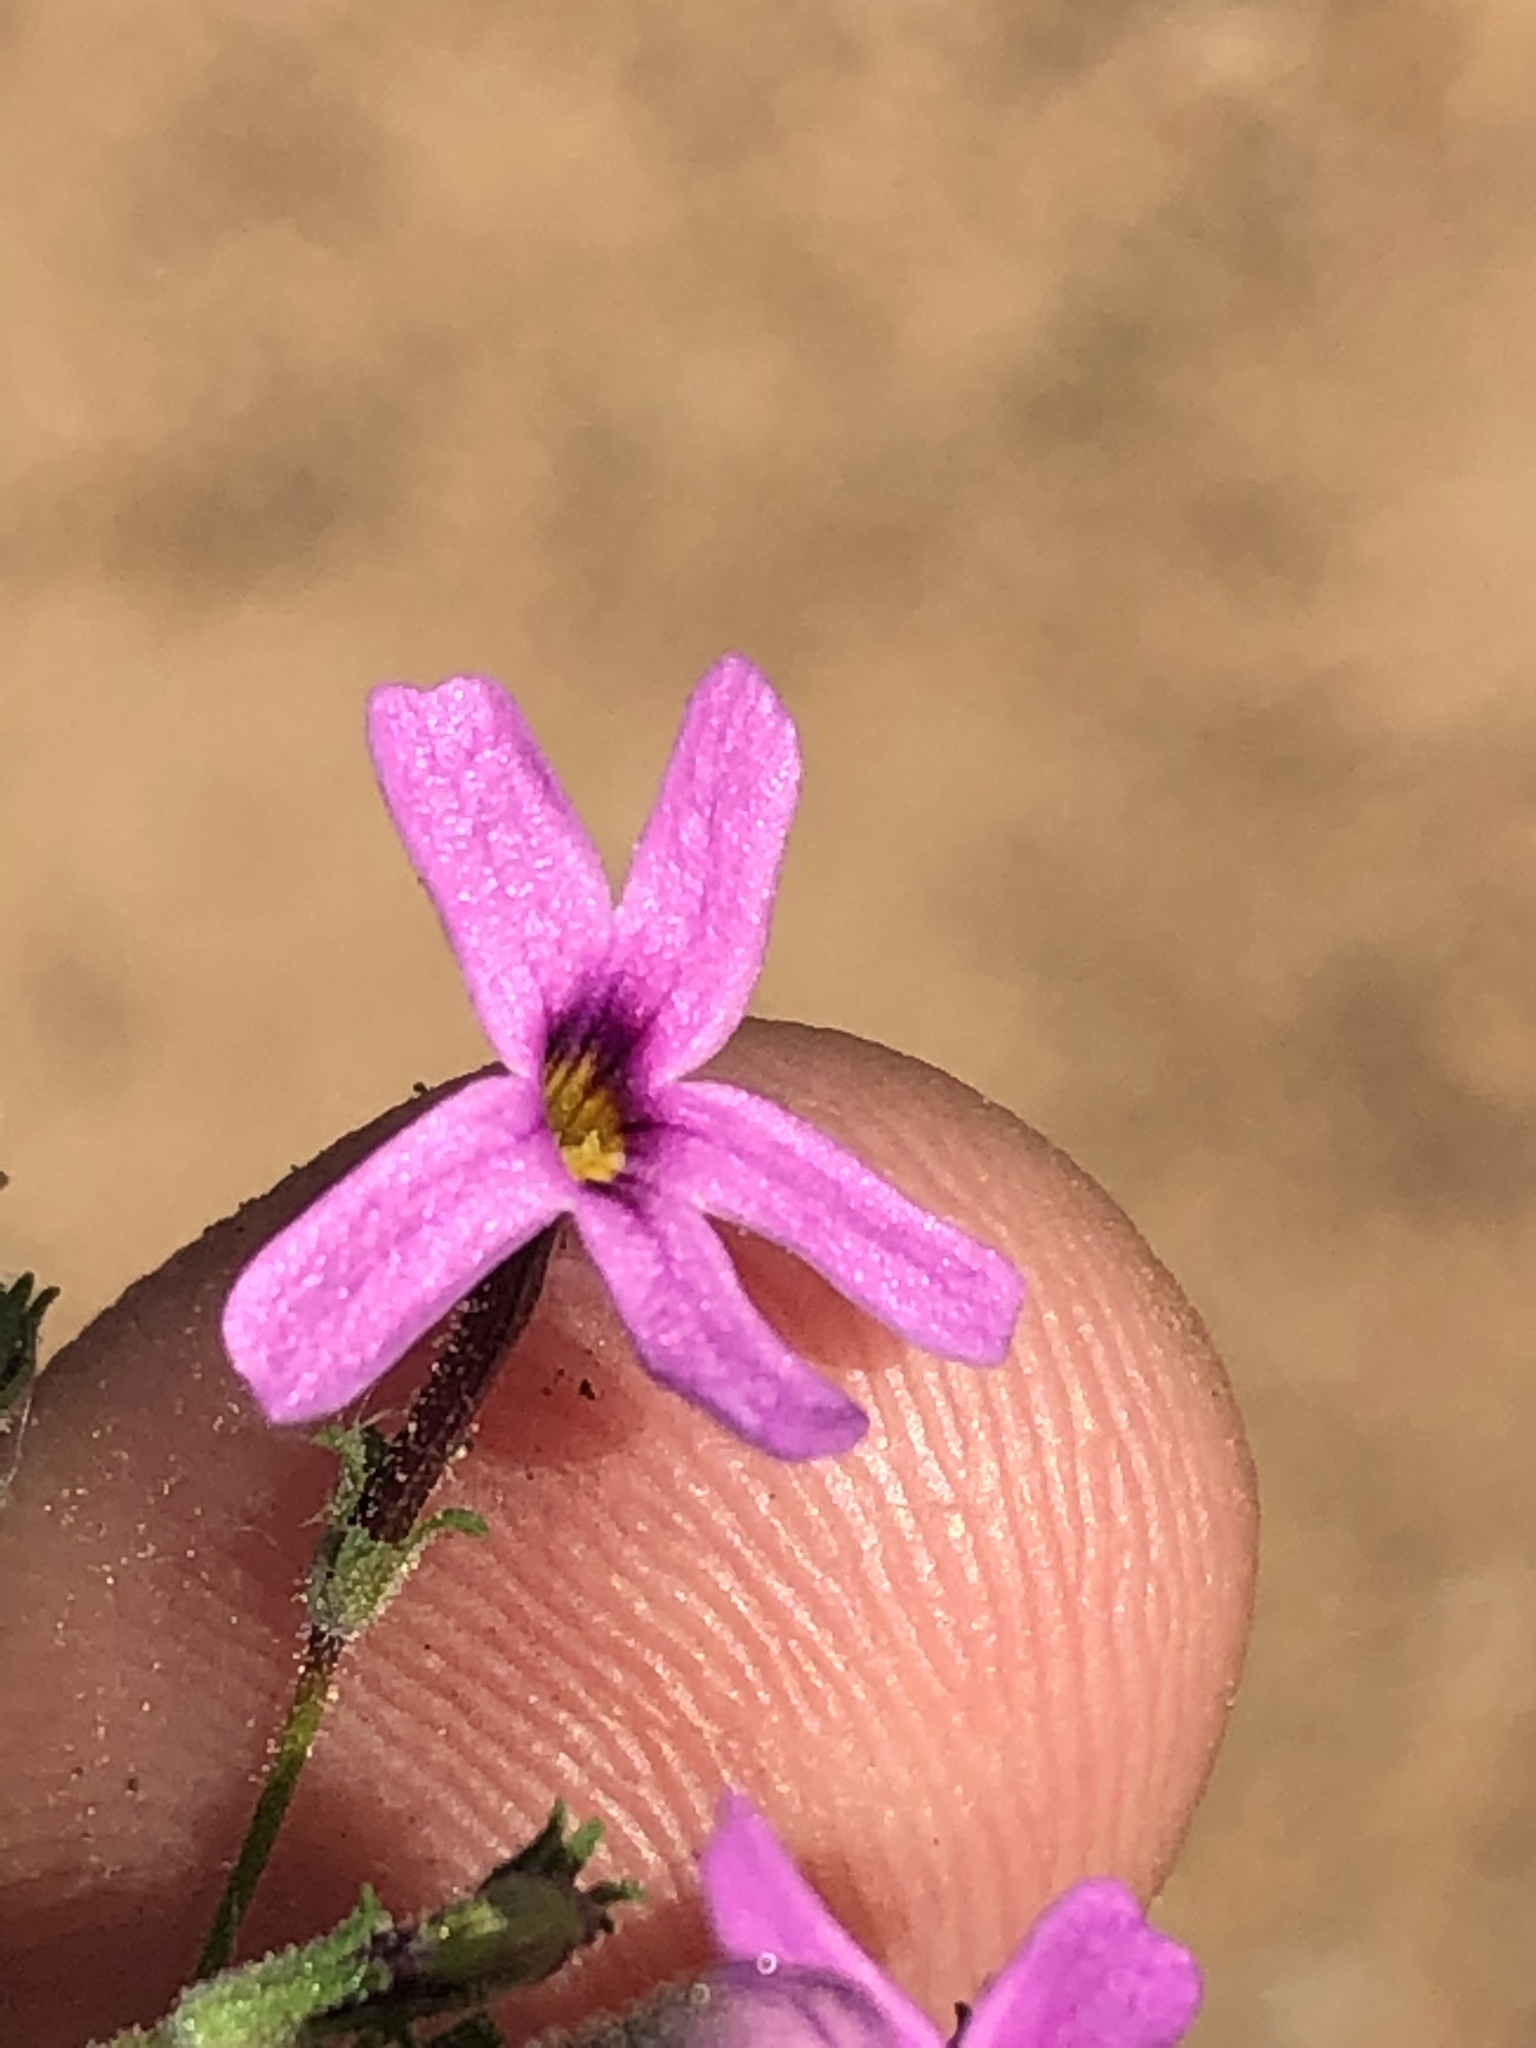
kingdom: Plantae
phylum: Tracheophyta
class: Magnoliopsida
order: Lamiales
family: Scrophulariaceae
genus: Jamesbrittenia
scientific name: Jamesbrittenia foliolosa
